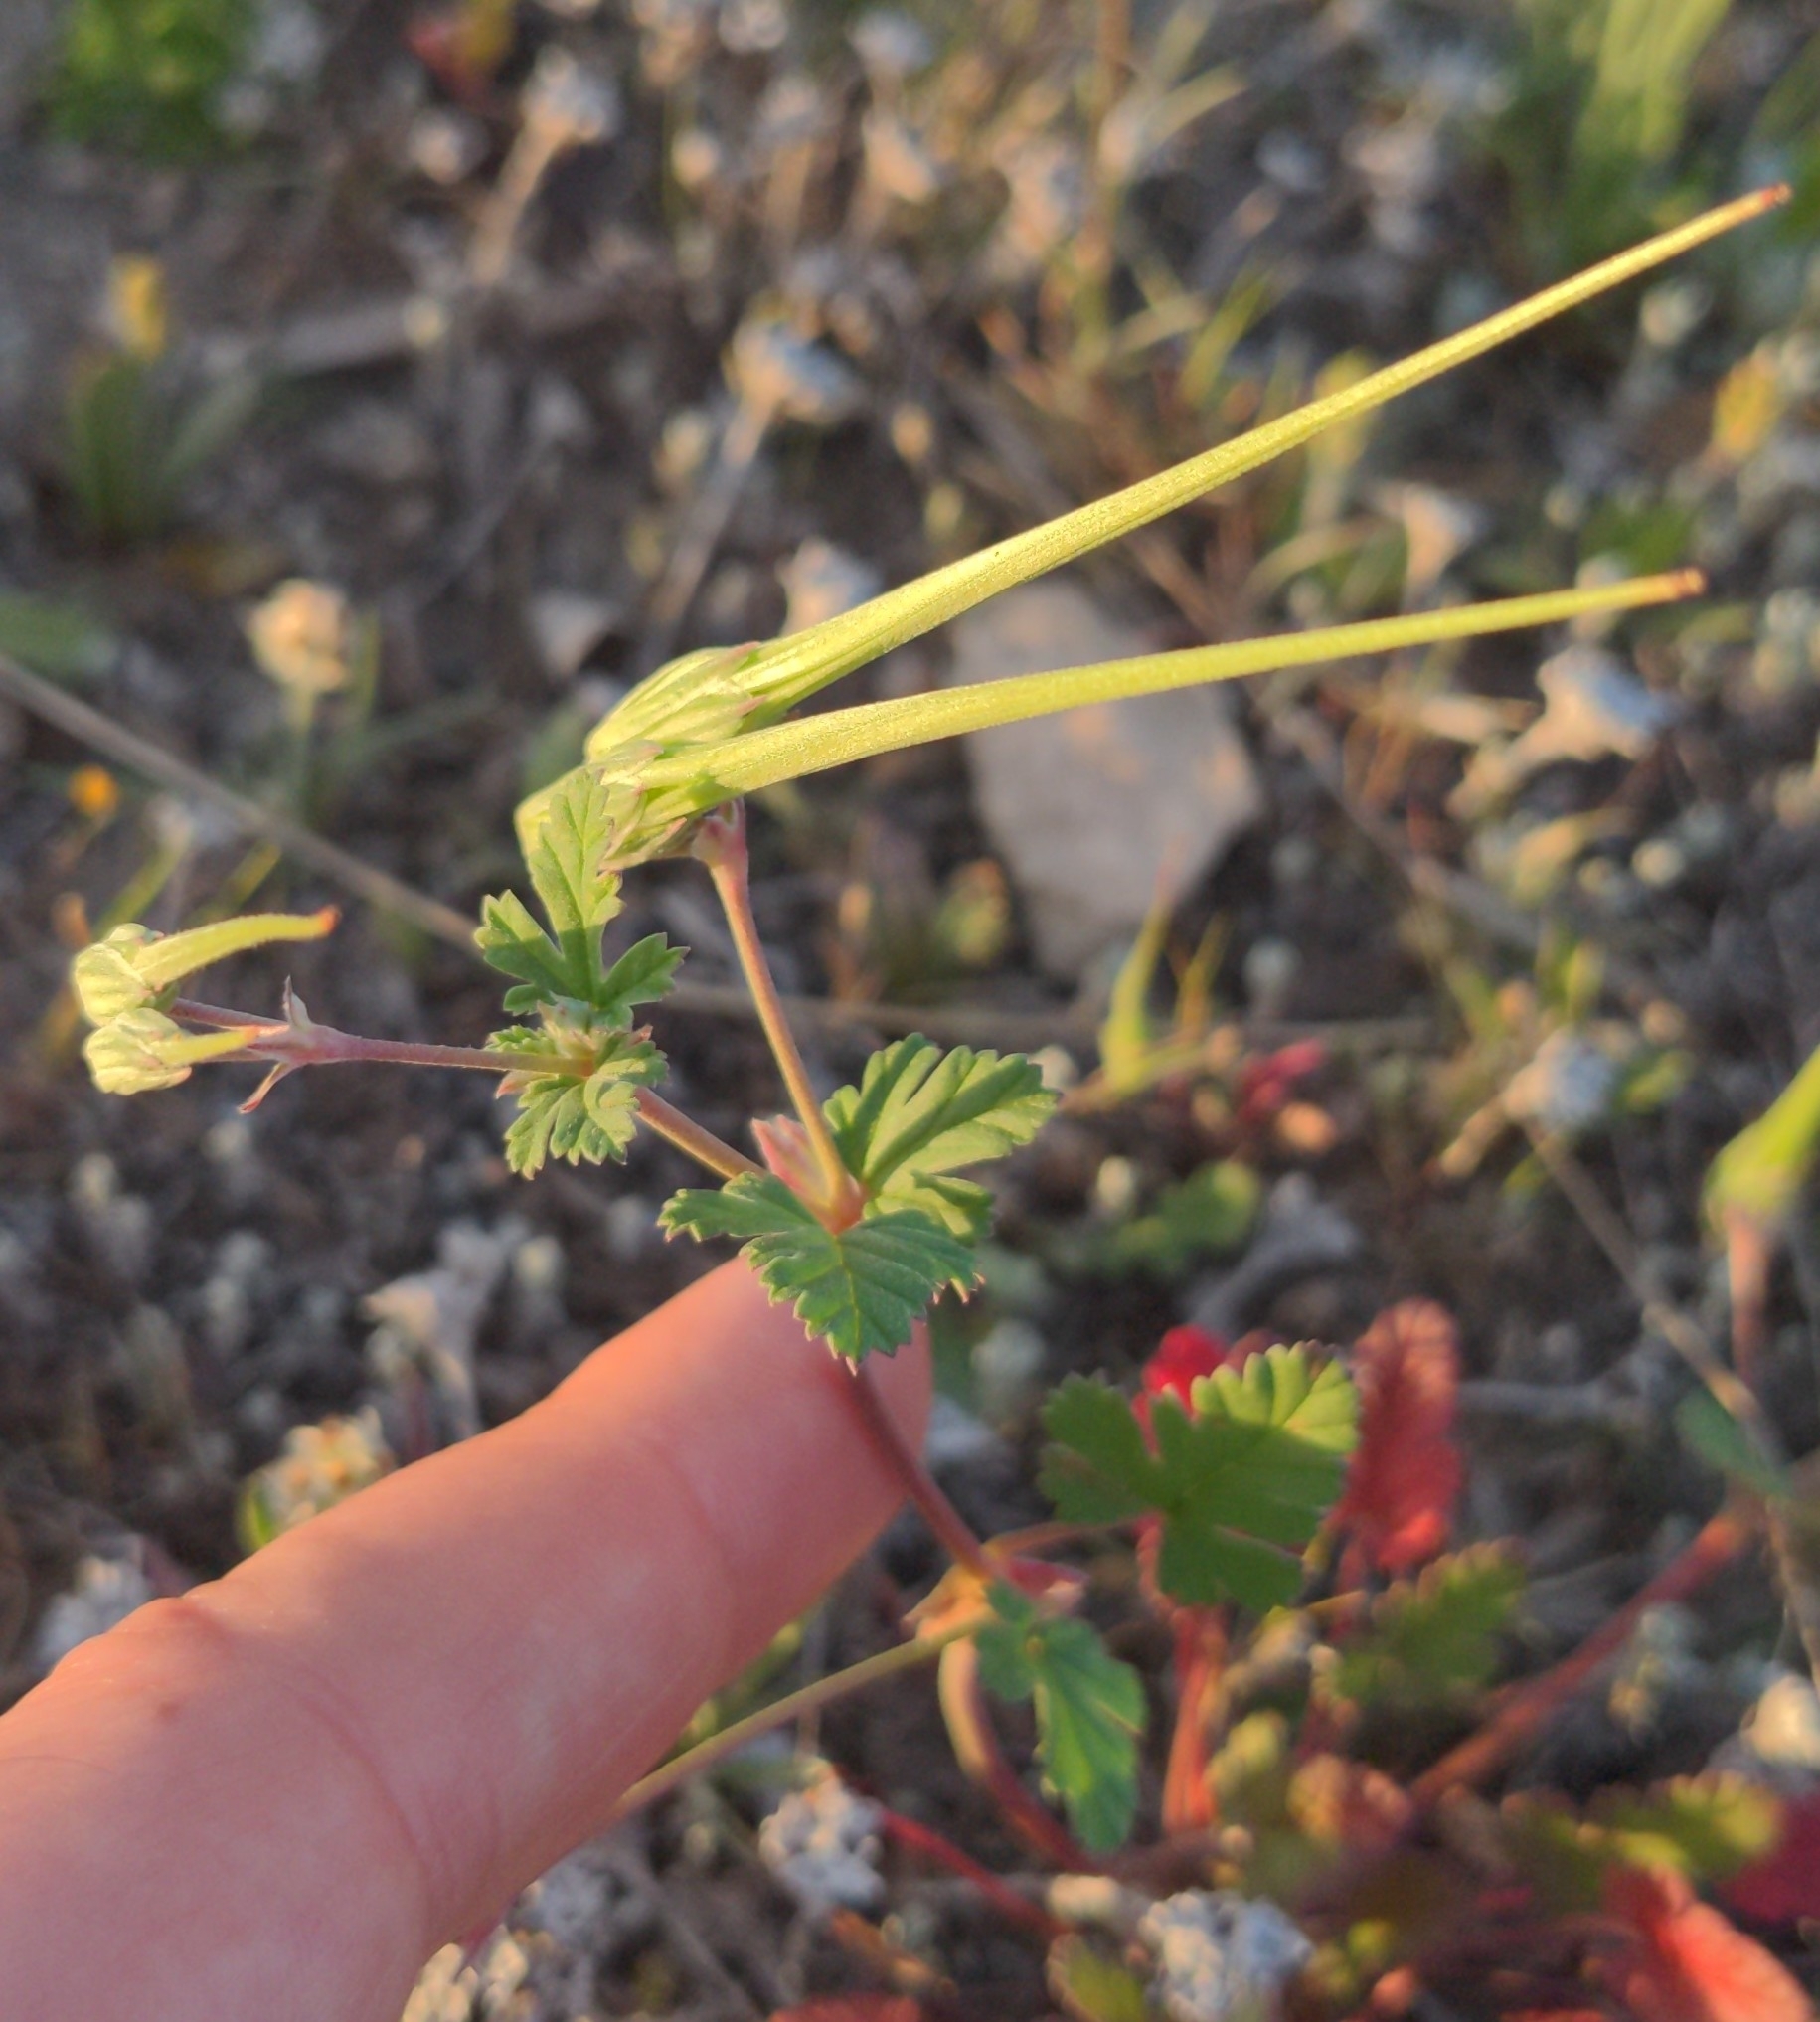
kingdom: Plantae
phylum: Tracheophyta
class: Magnoliopsida
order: Geraniales
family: Geraniaceae
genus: Erodium
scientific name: Erodium texanum
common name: Texas stork's-bill
